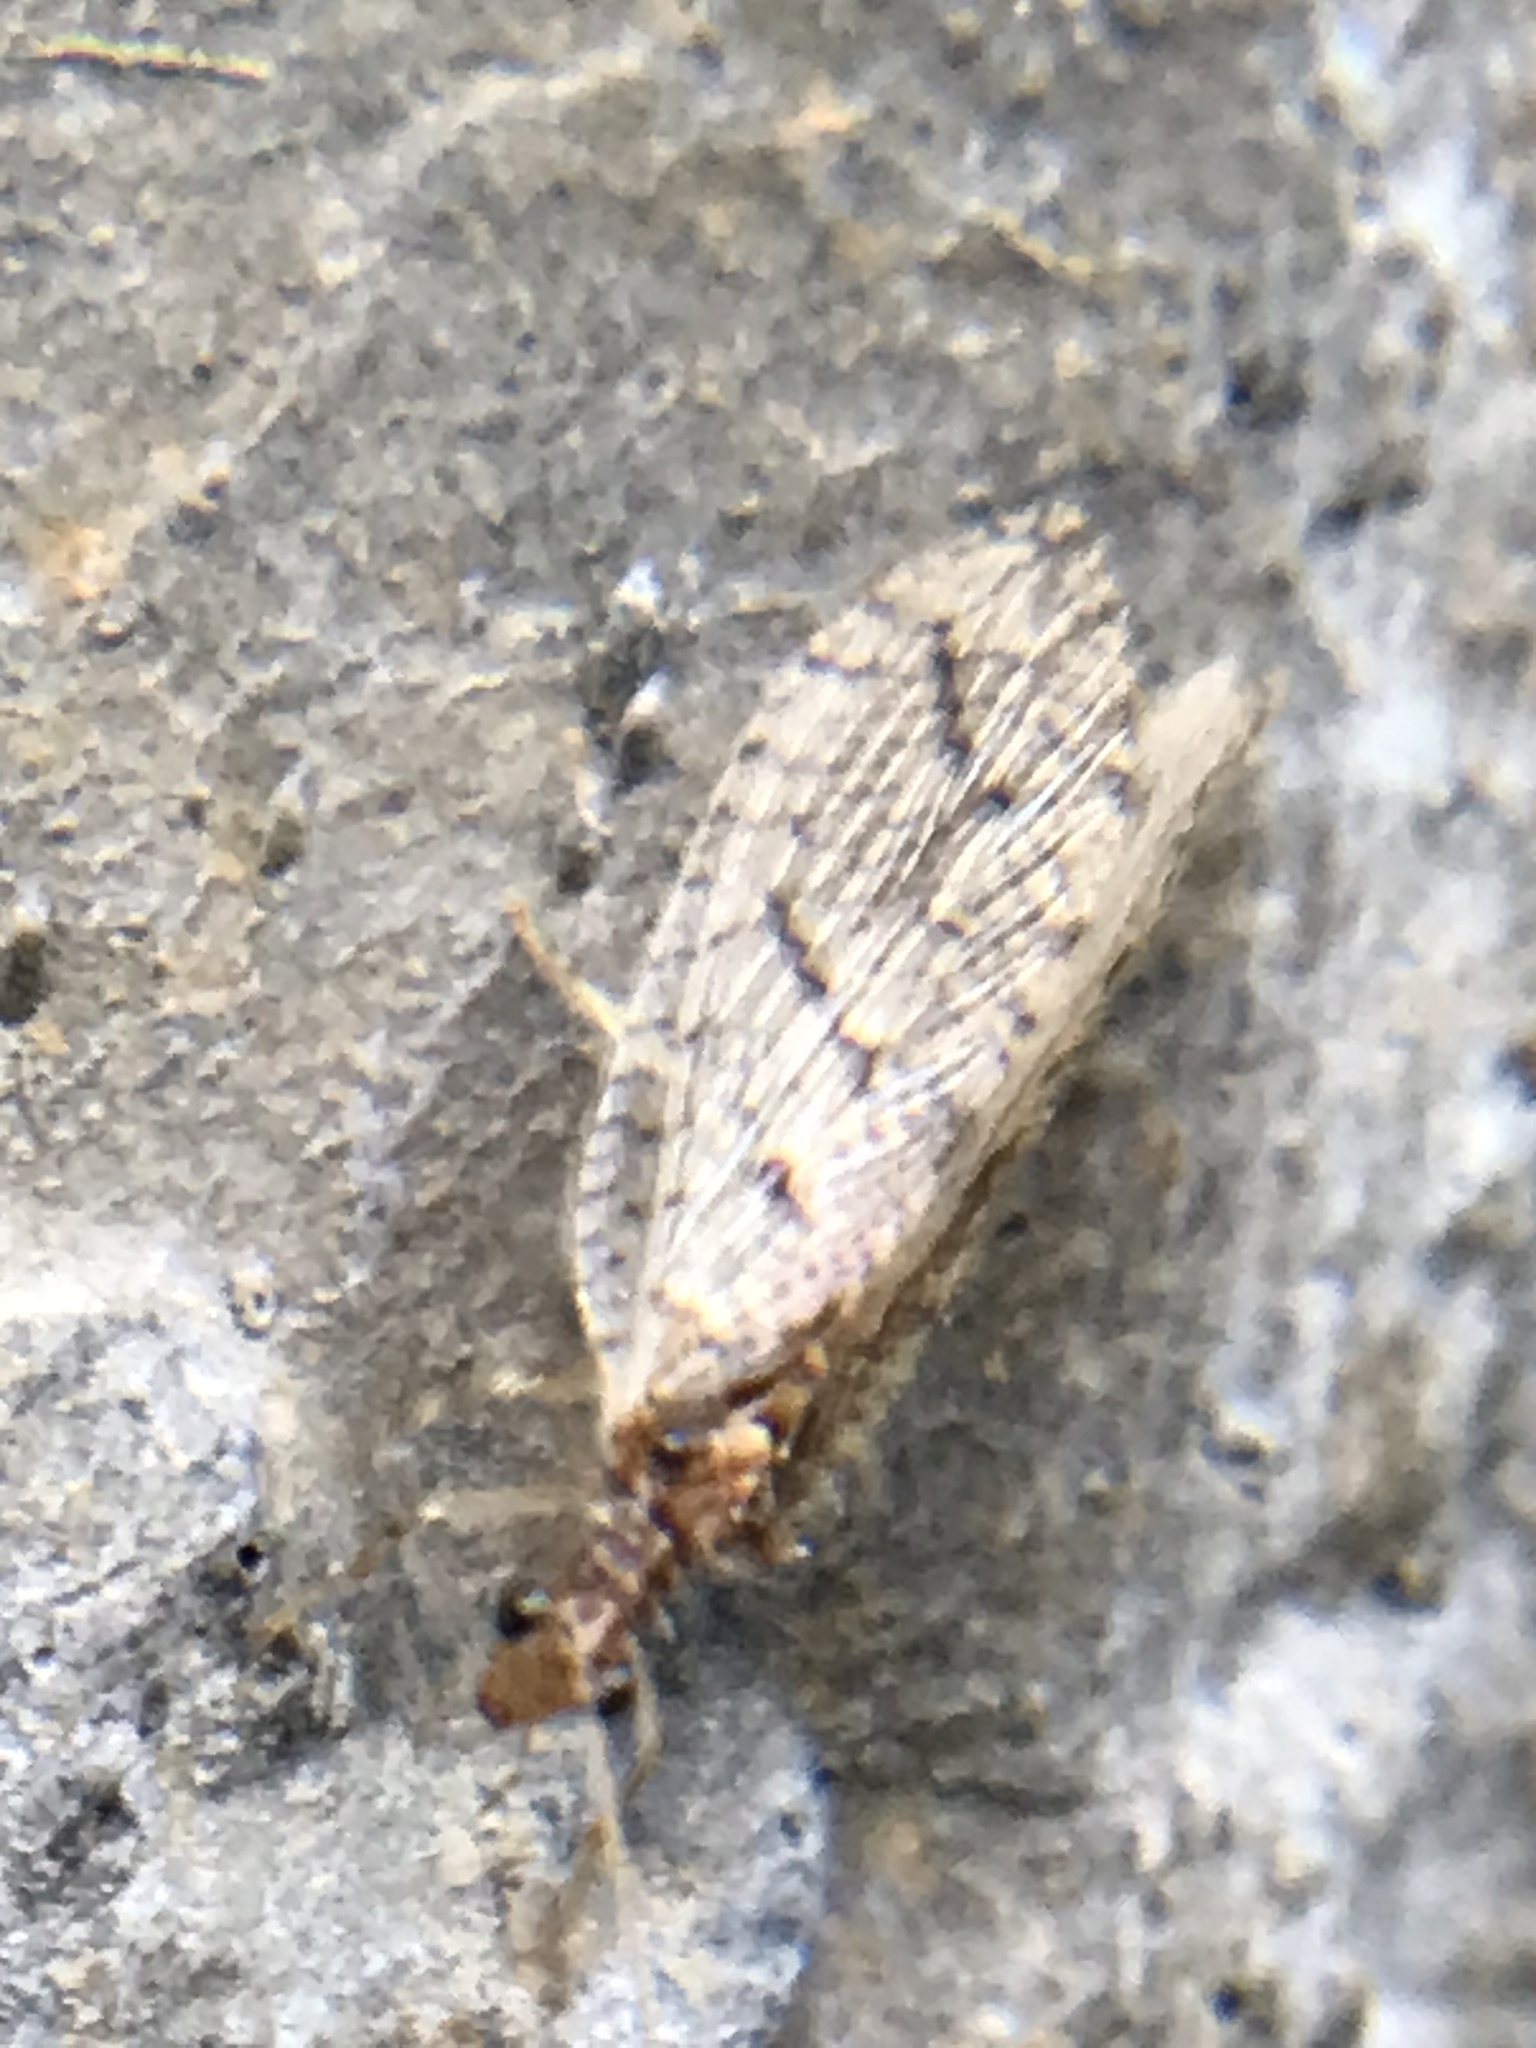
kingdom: Animalia
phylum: Arthropoda
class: Insecta
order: Neuroptera
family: Hemerobiidae
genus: Micromus
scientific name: Micromus posticus
